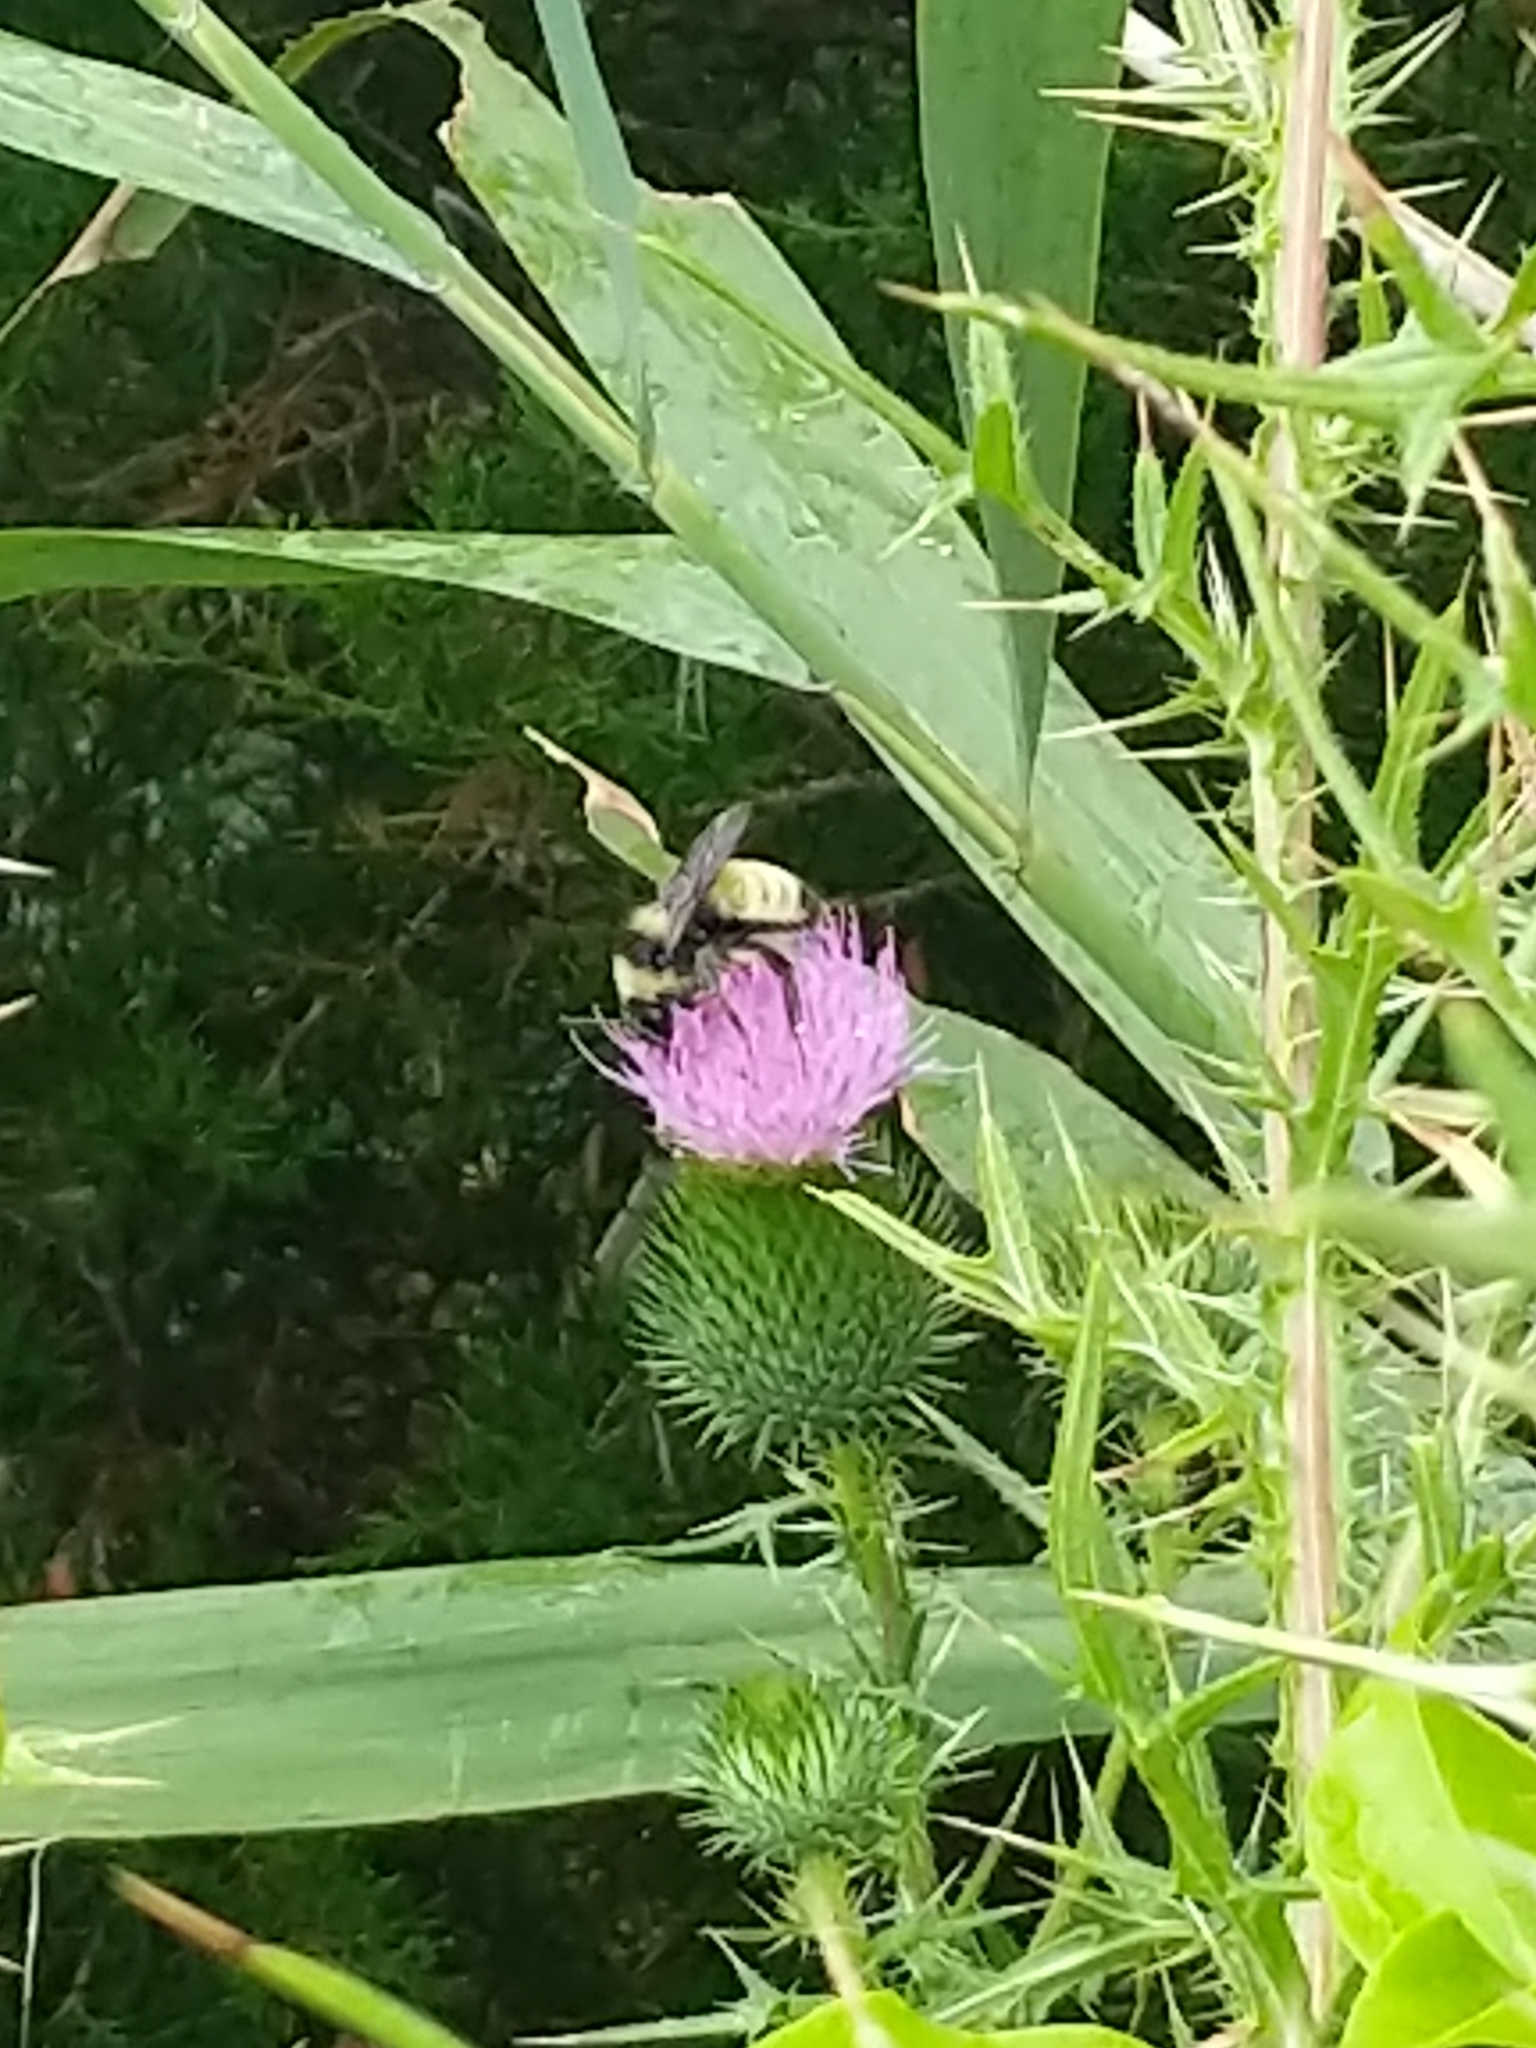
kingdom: Animalia
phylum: Arthropoda
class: Insecta
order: Hymenoptera
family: Apidae
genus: Bombus
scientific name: Bombus pensylvanicus
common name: Bumble bee
